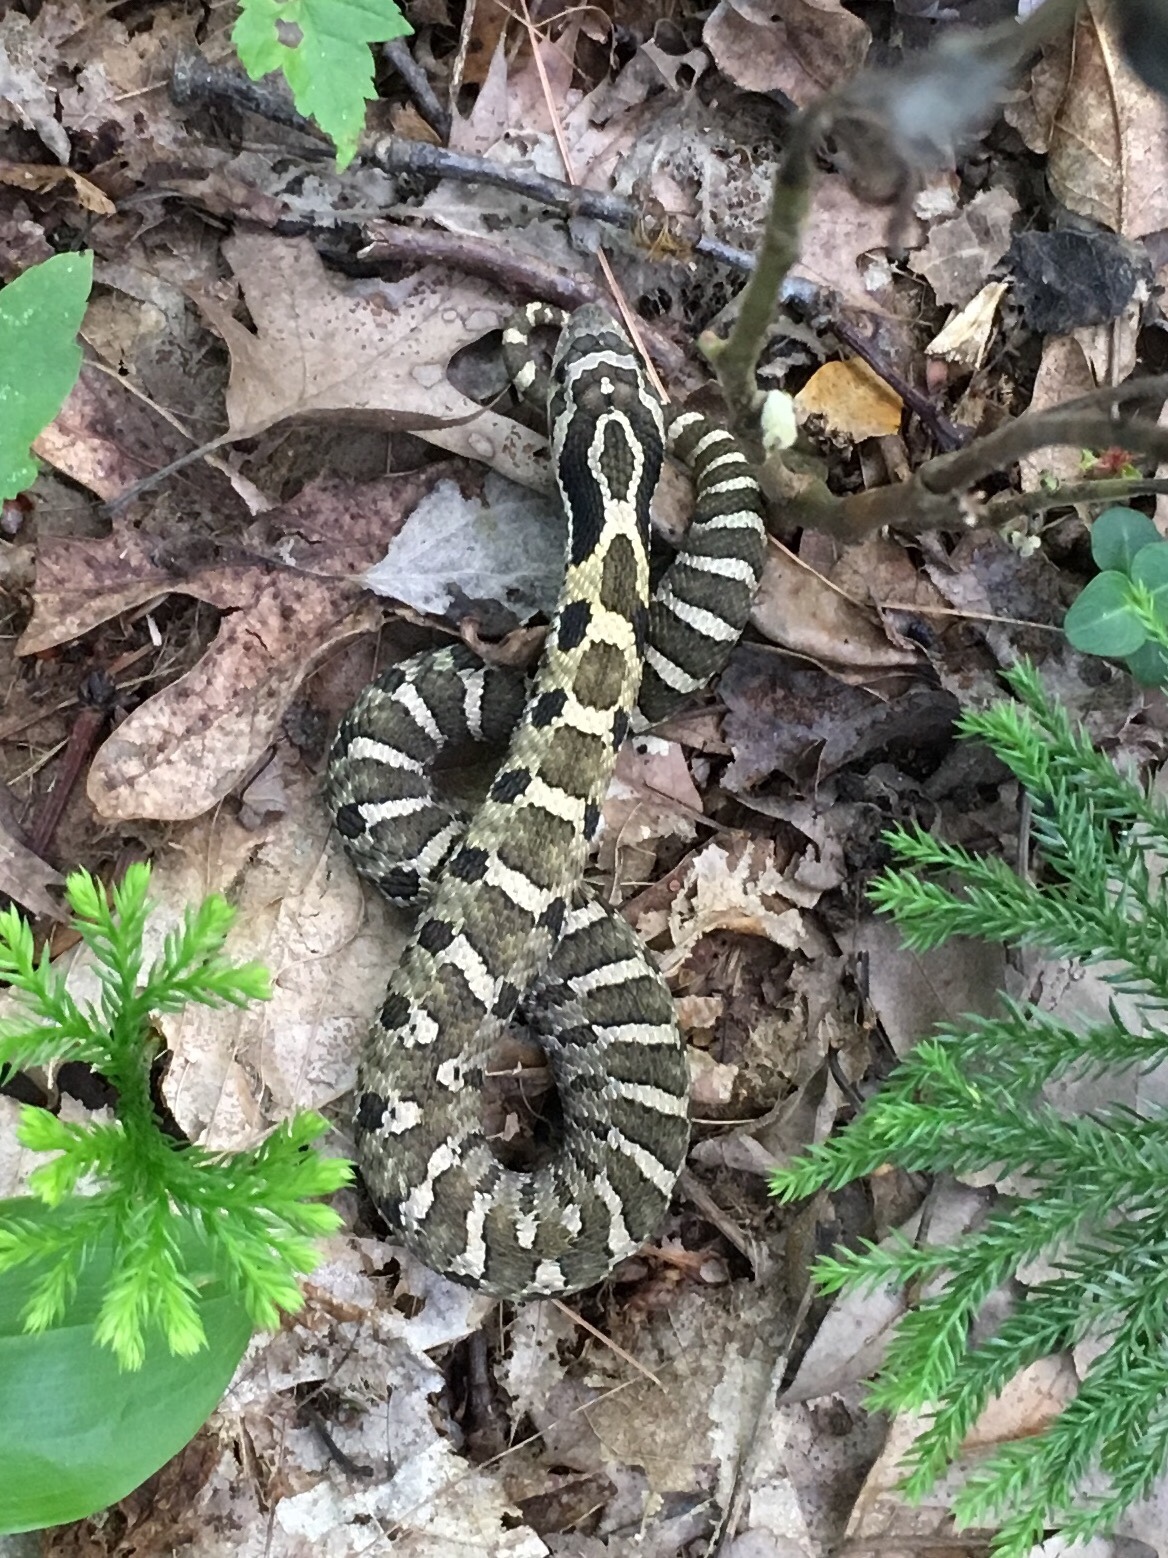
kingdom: Animalia
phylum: Chordata
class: Squamata
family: Colubridae
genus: Heterodon
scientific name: Heterodon platirhinos
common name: Eastern hognose snake
